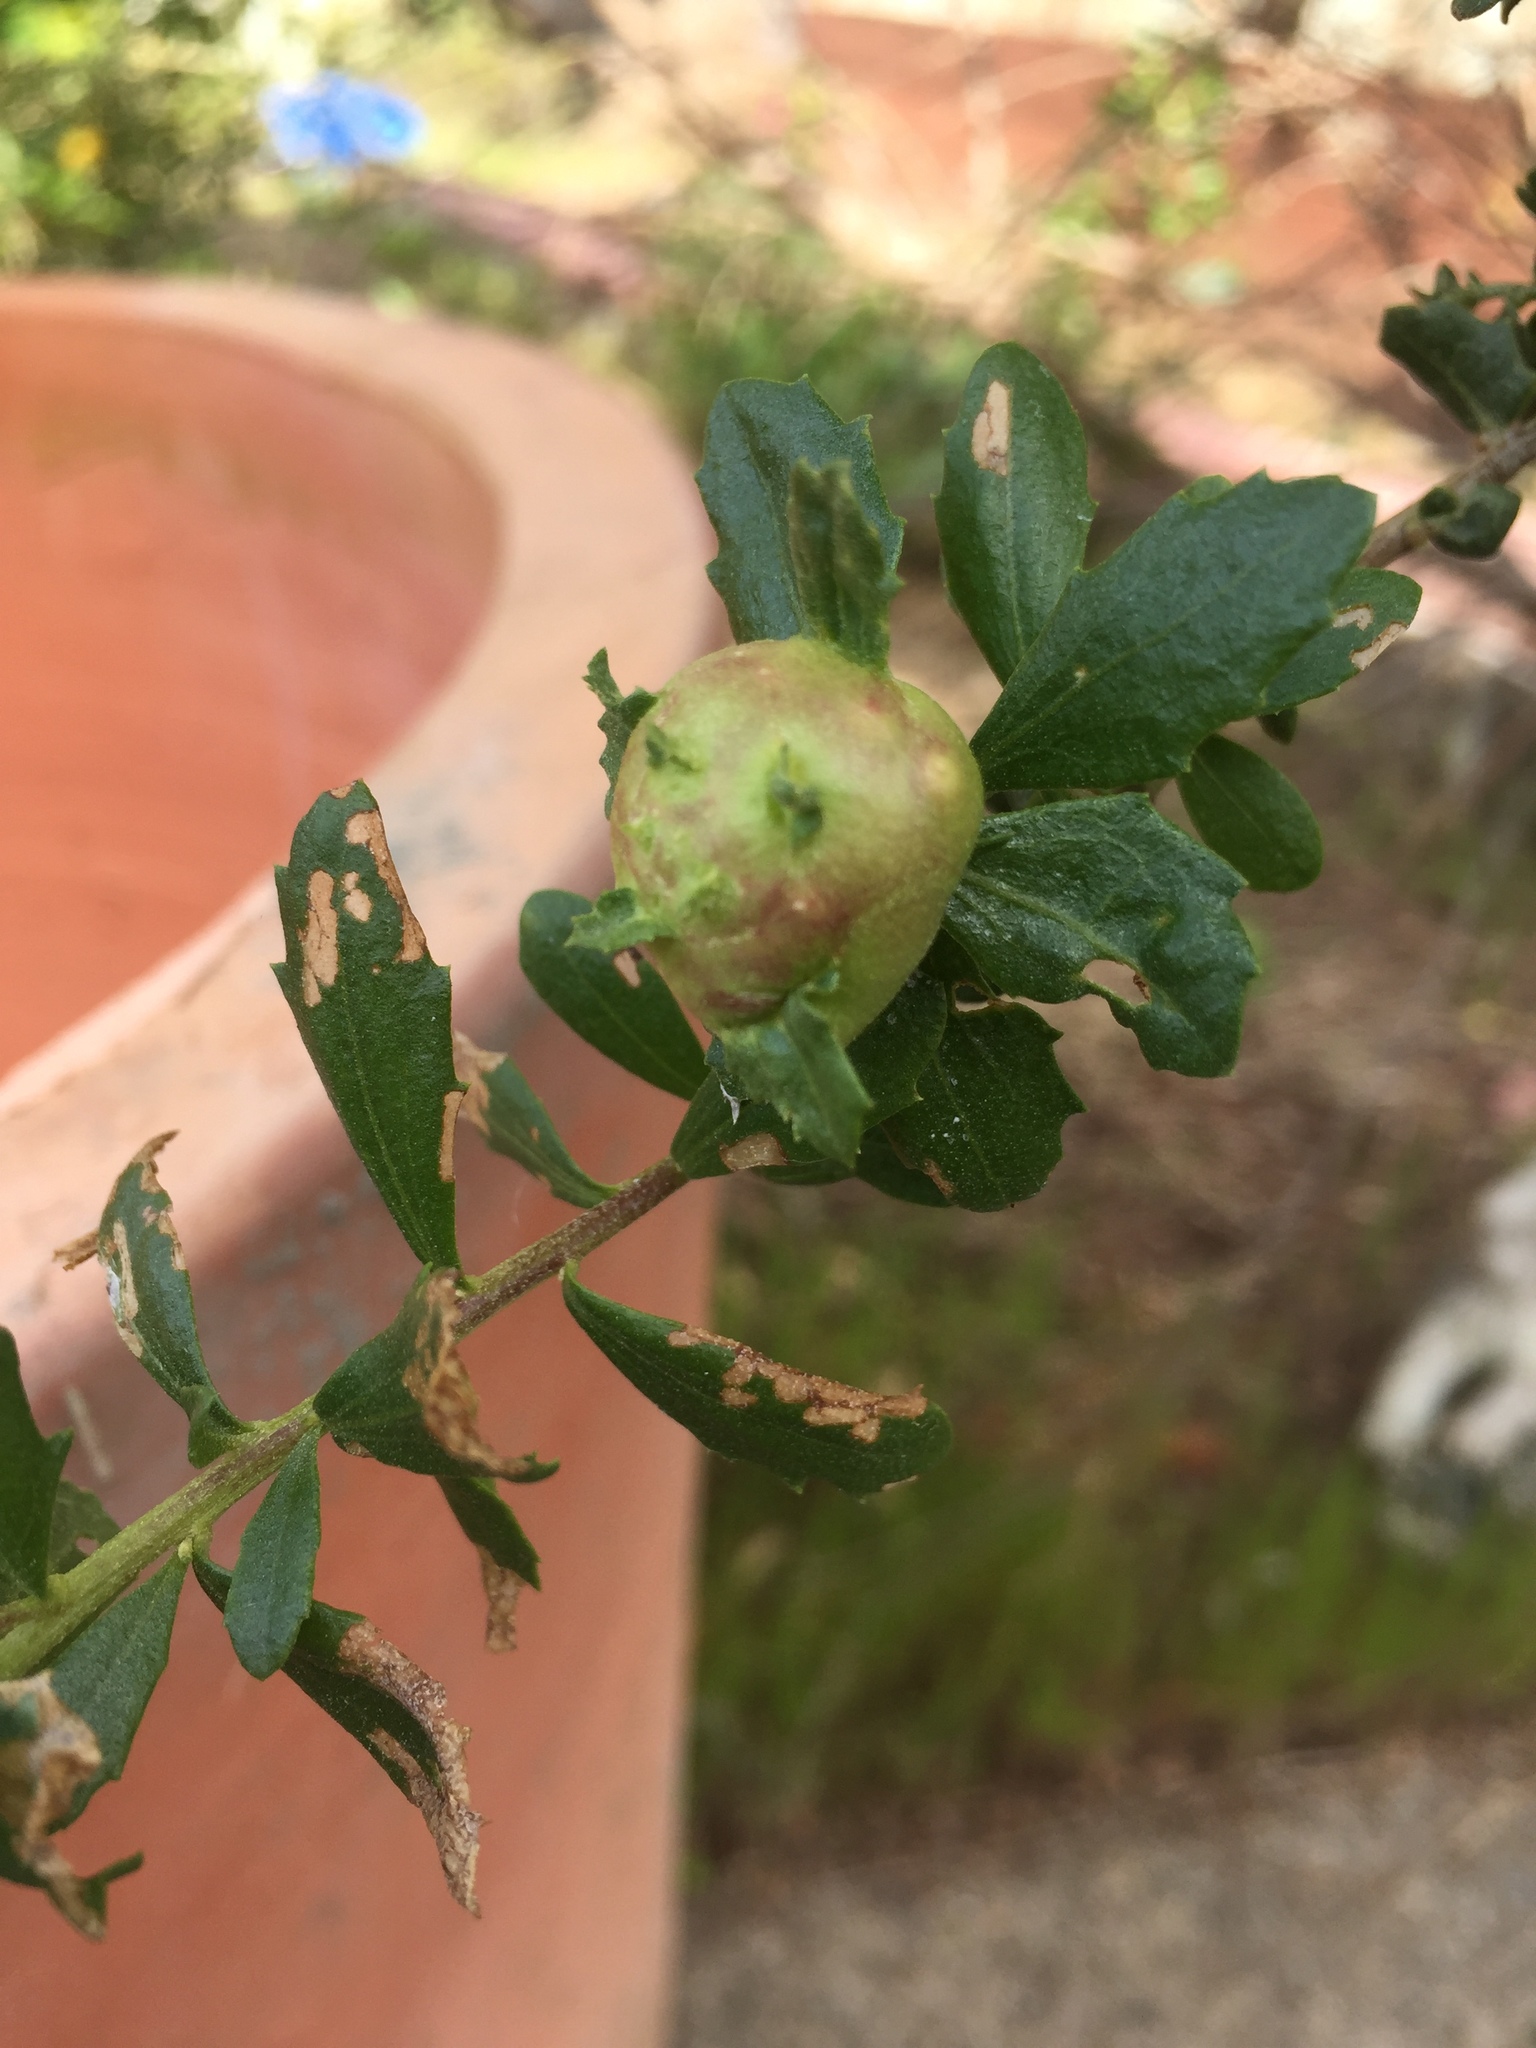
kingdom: Animalia
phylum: Arthropoda
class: Insecta
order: Diptera
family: Cecidomyiidae
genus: Rhopalomyia
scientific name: Rhopalomyia californica
